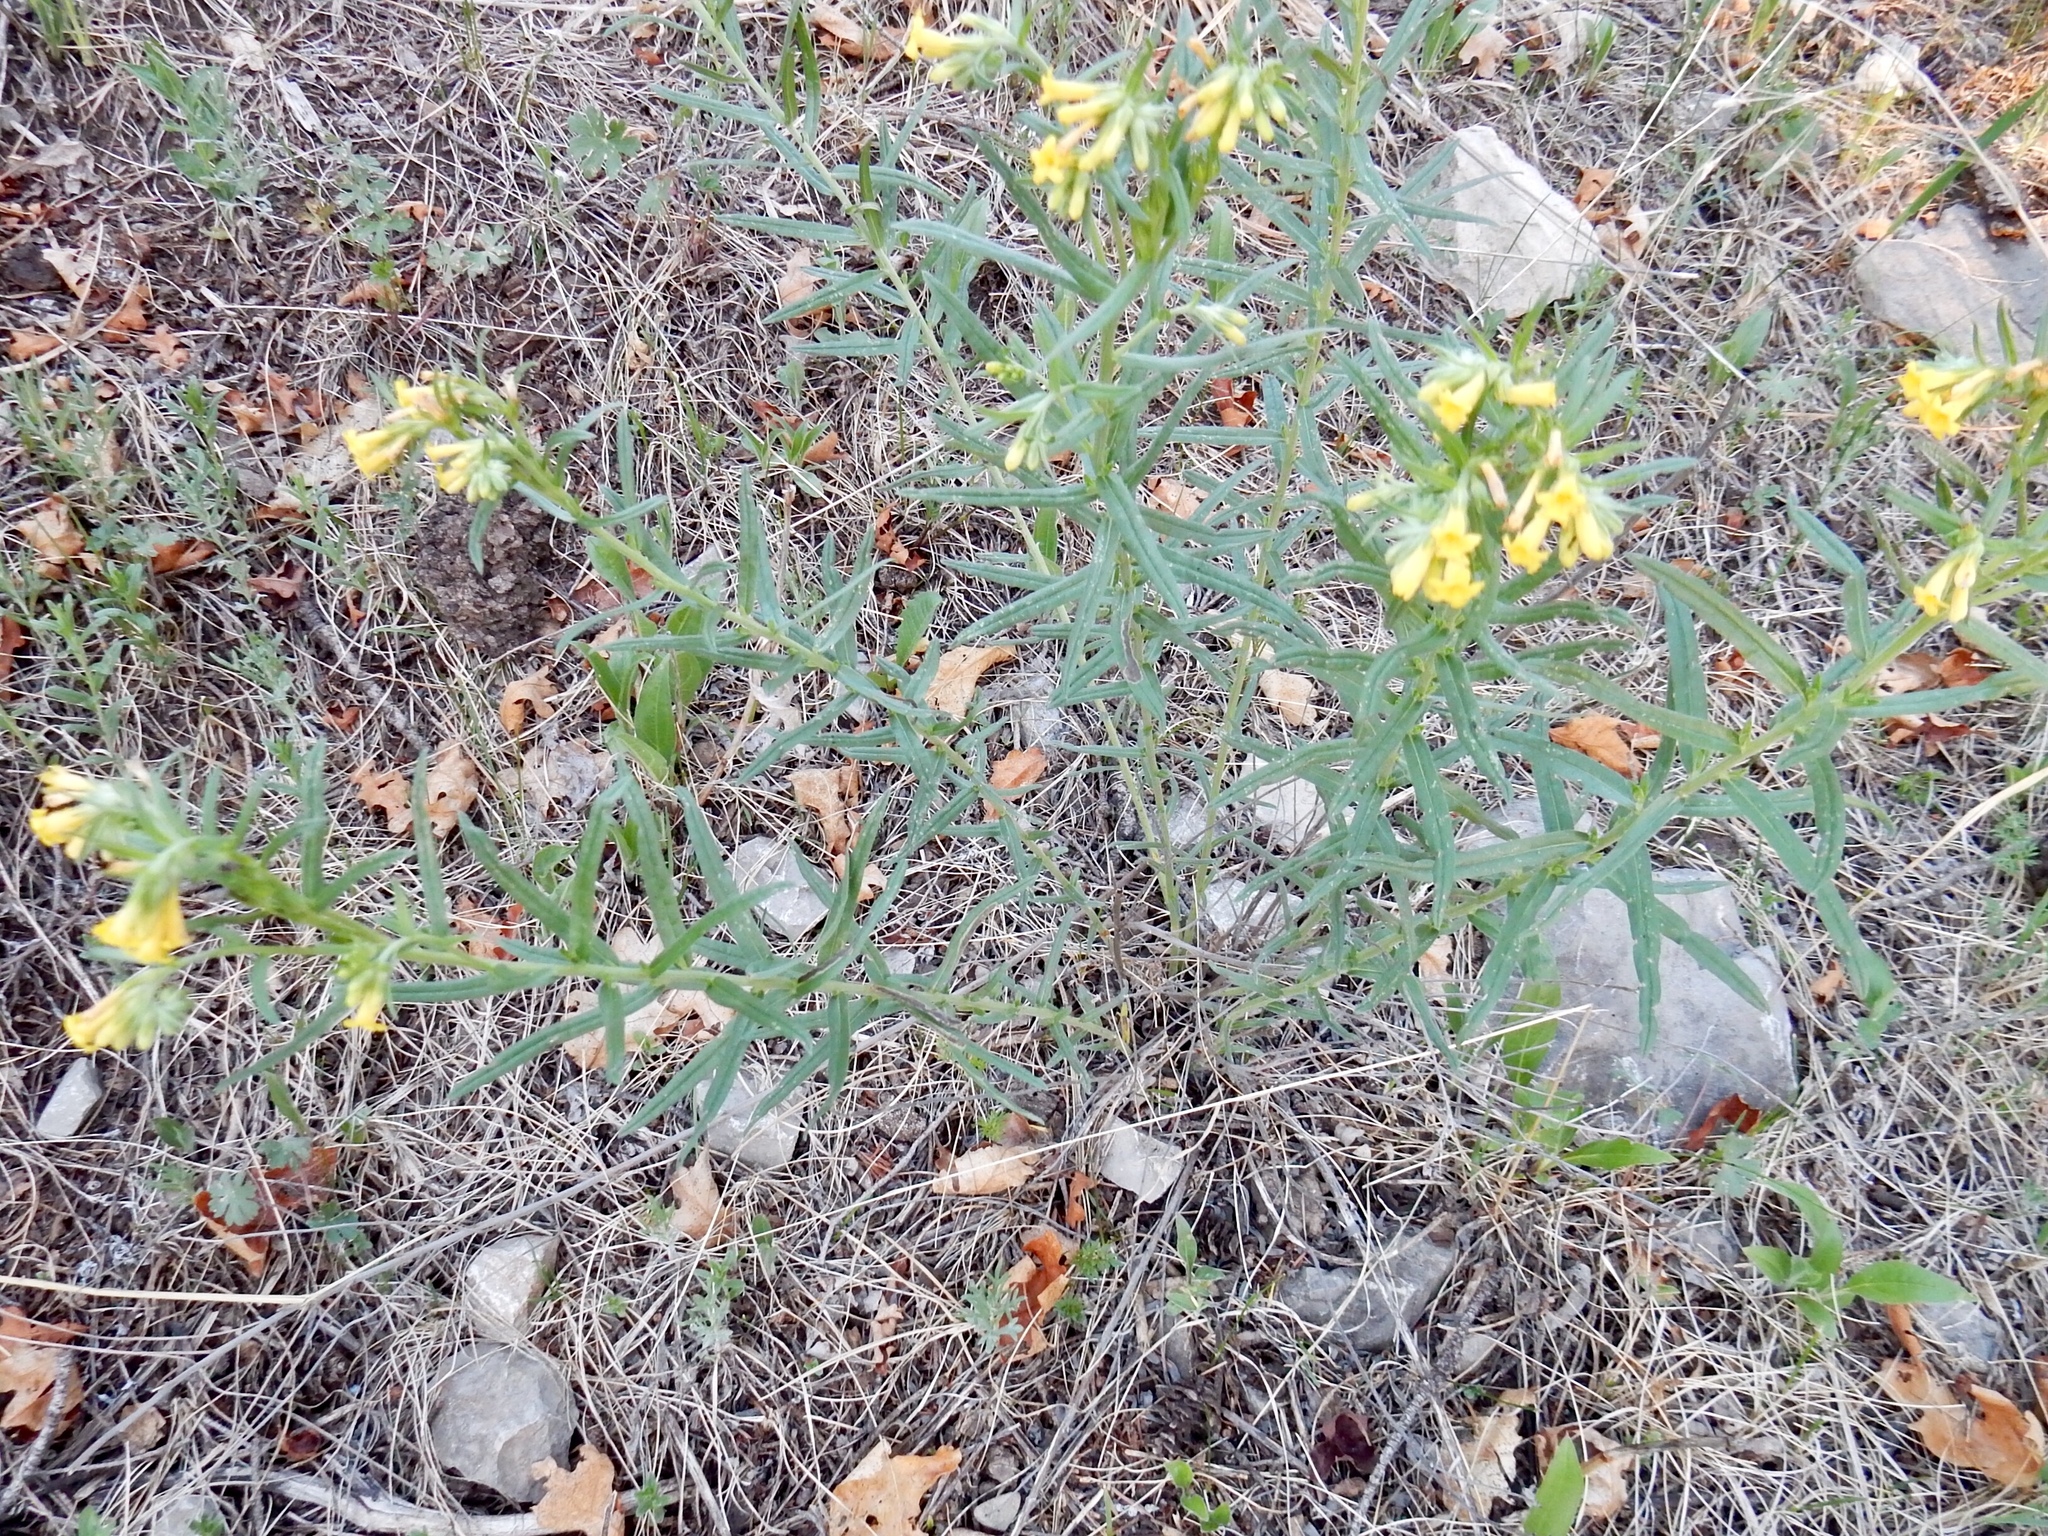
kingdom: Plantae
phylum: Tracheophyta
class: Magnoliopsida
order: Boraginales
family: Boraginaceae
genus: Lithospermum
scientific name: Lithospermum multiflorum
